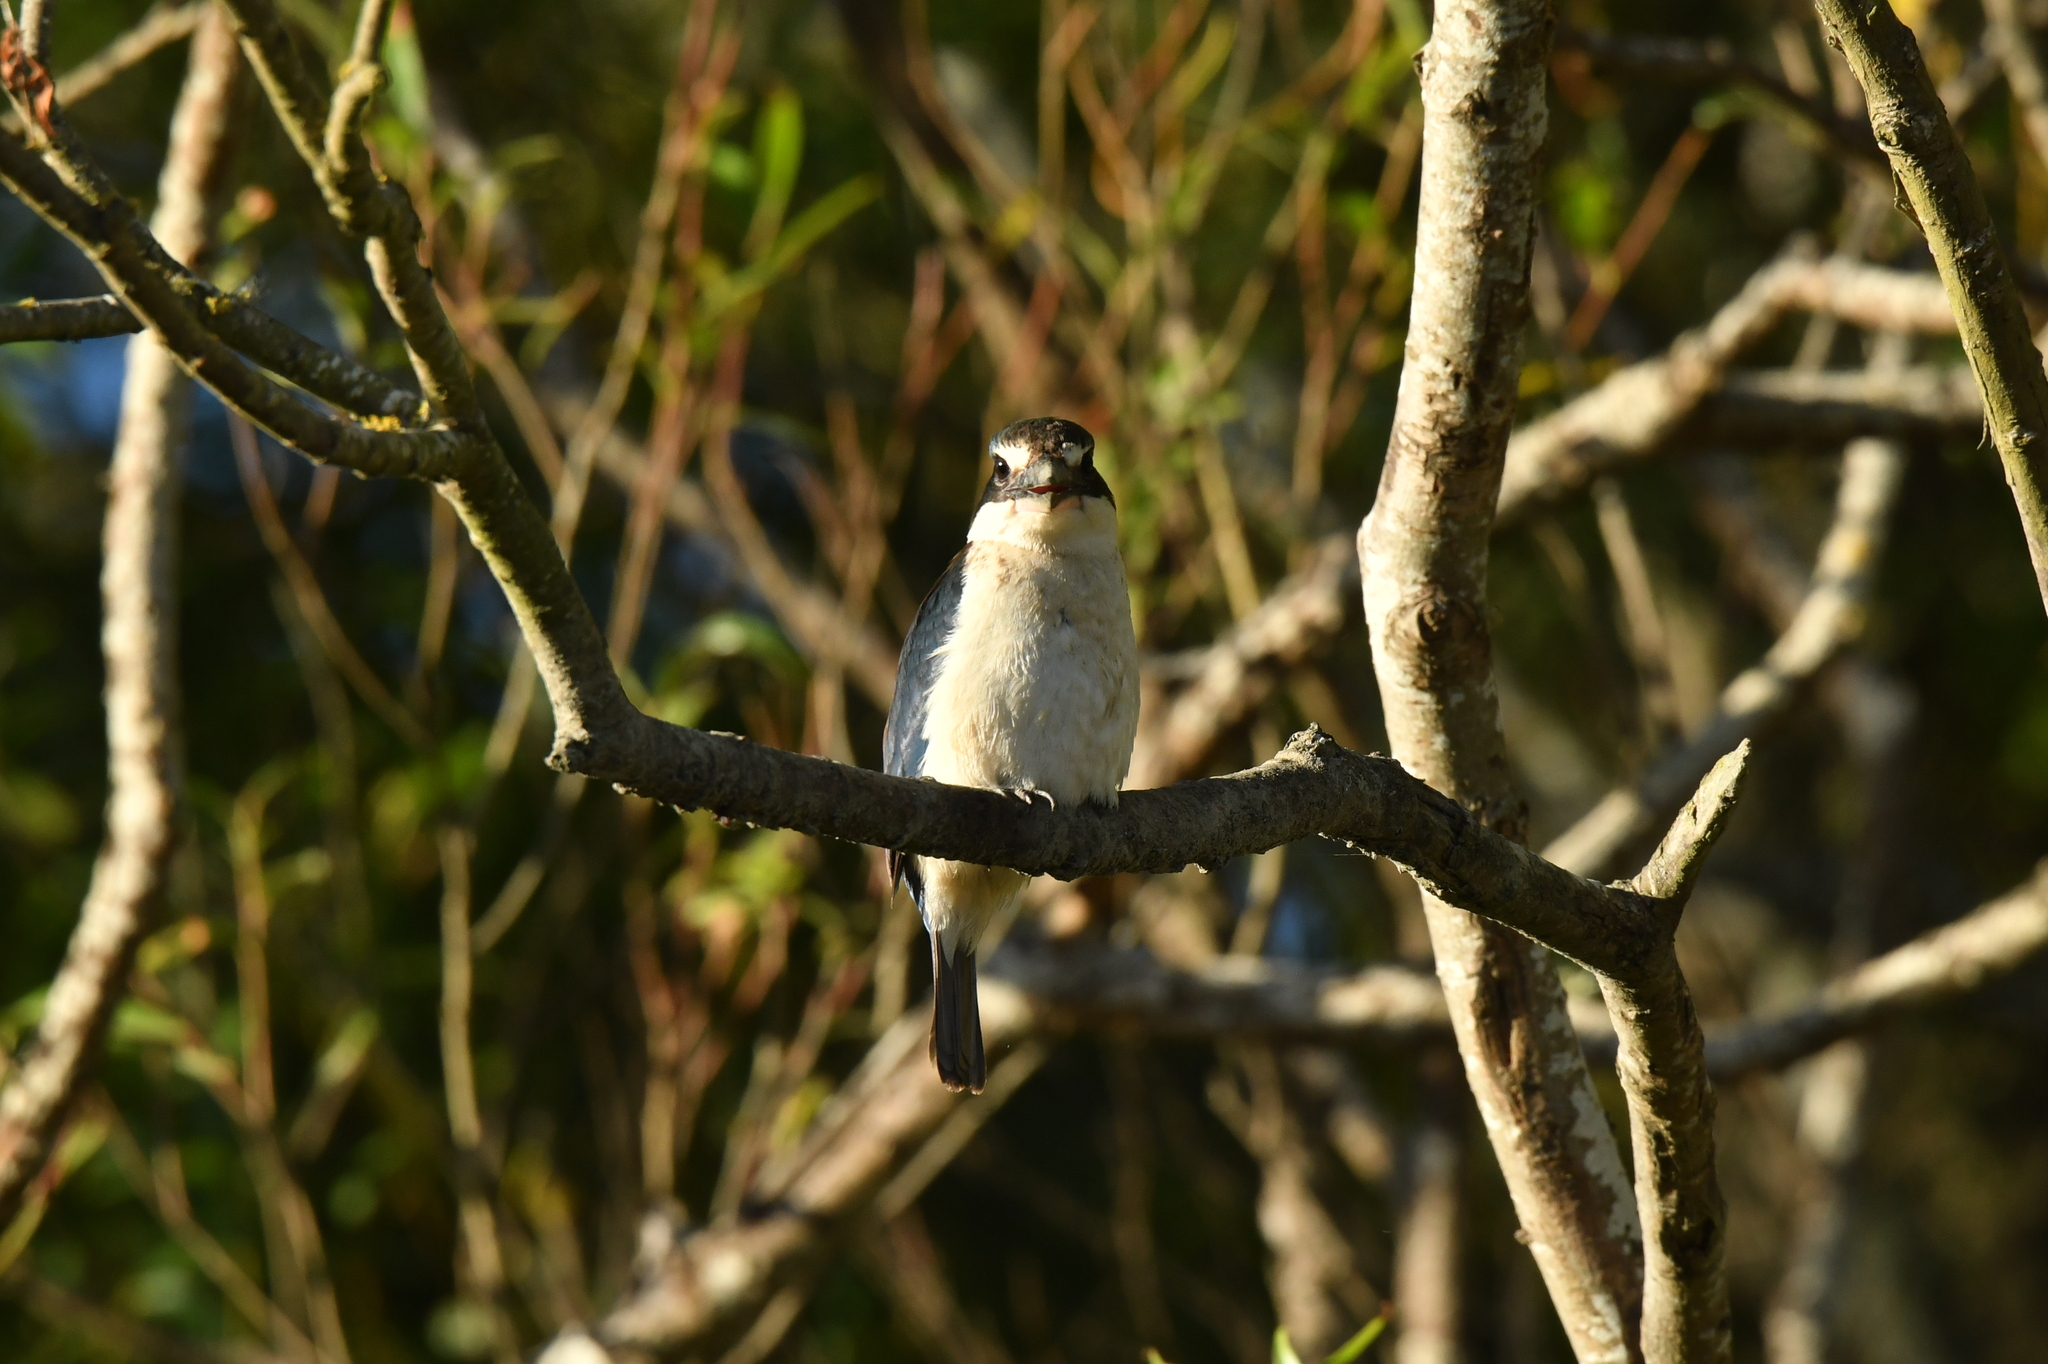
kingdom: Animalia
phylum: Chordata
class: Aves
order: Coraciiformes
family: Alcedinidae
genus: Todiramphus
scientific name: Todiramphus sanctus
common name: Sacred kingfisher
